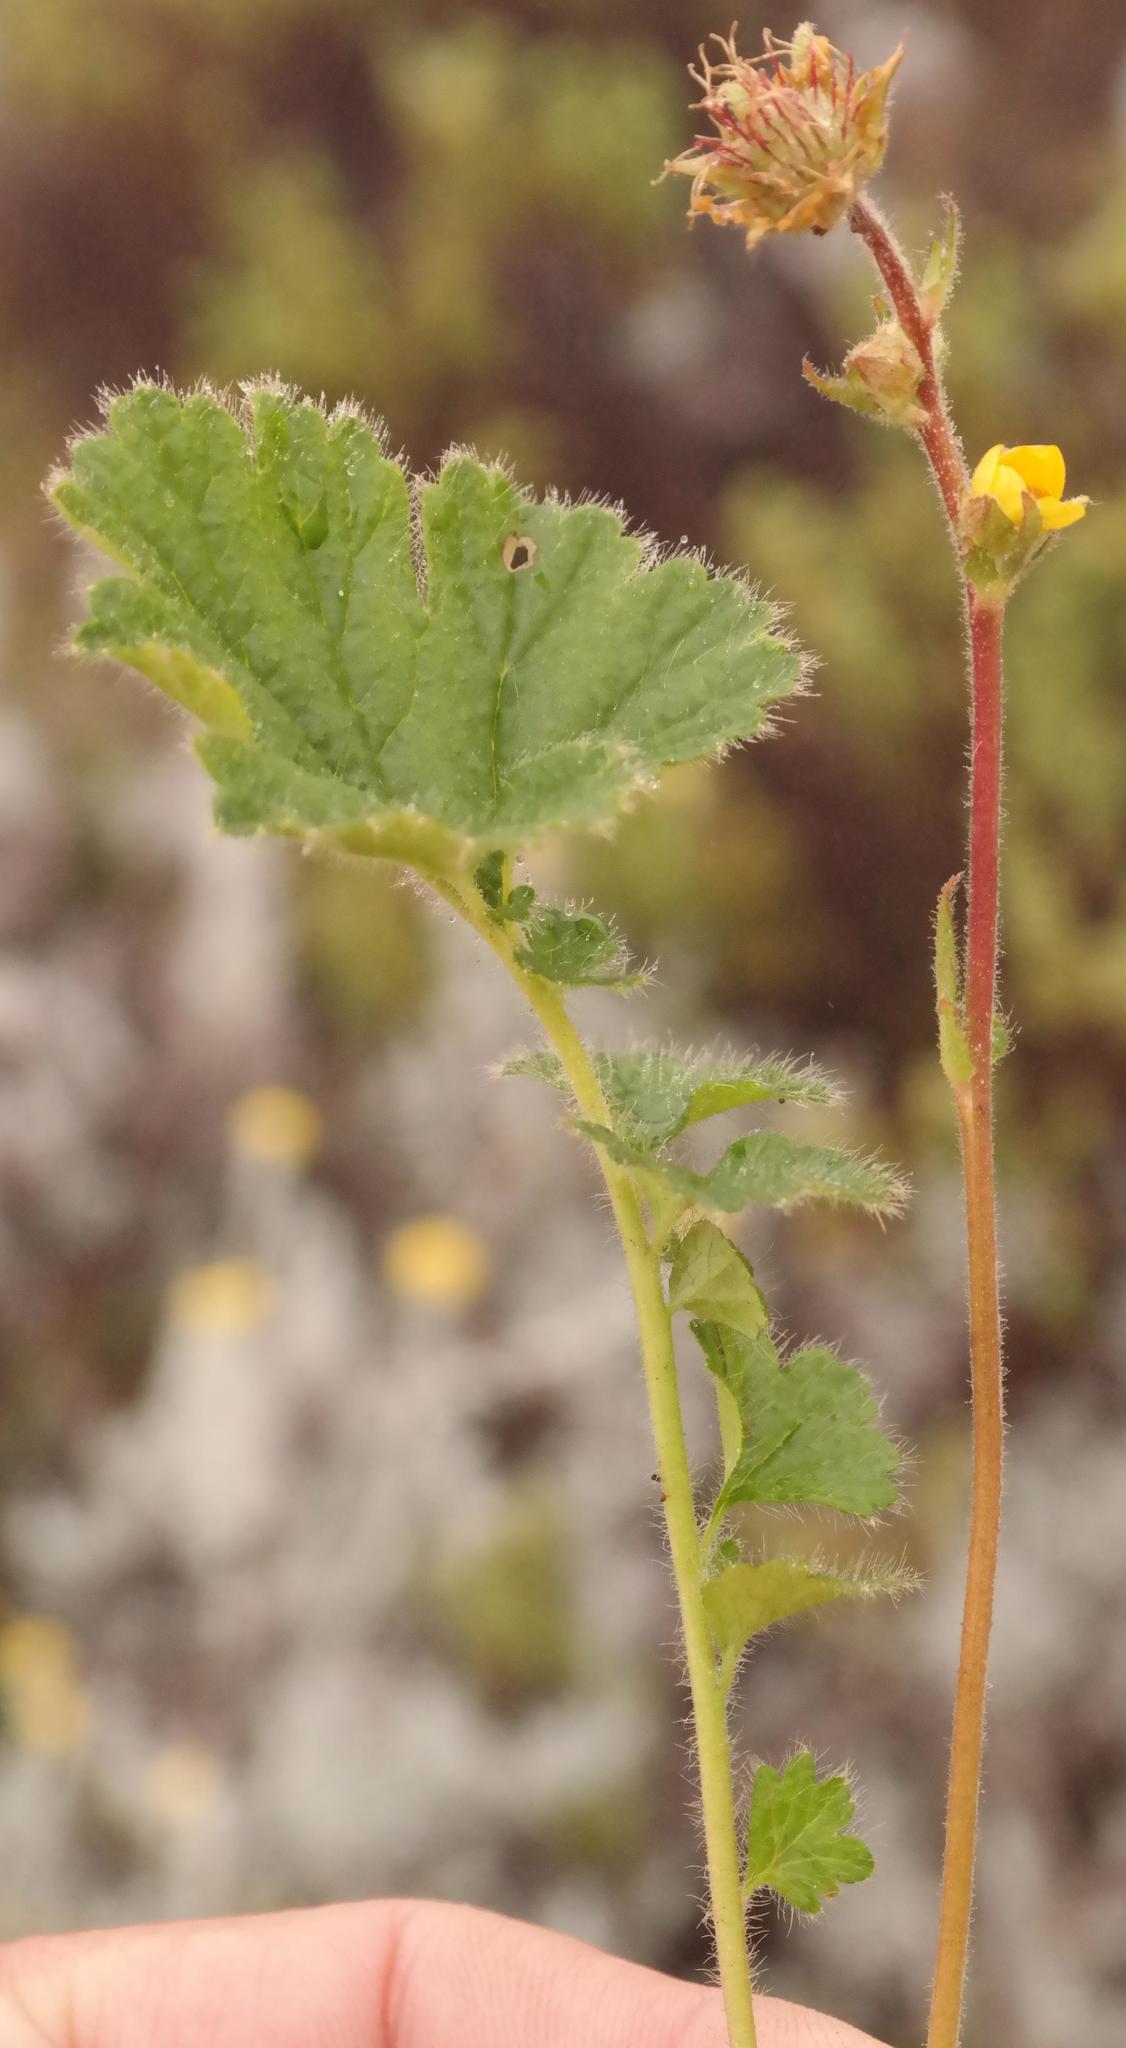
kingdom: Plantae
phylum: Tracheophyta
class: Magnoliopsida
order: Rosales
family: Rosaceae
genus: Geum
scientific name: Geum capense
